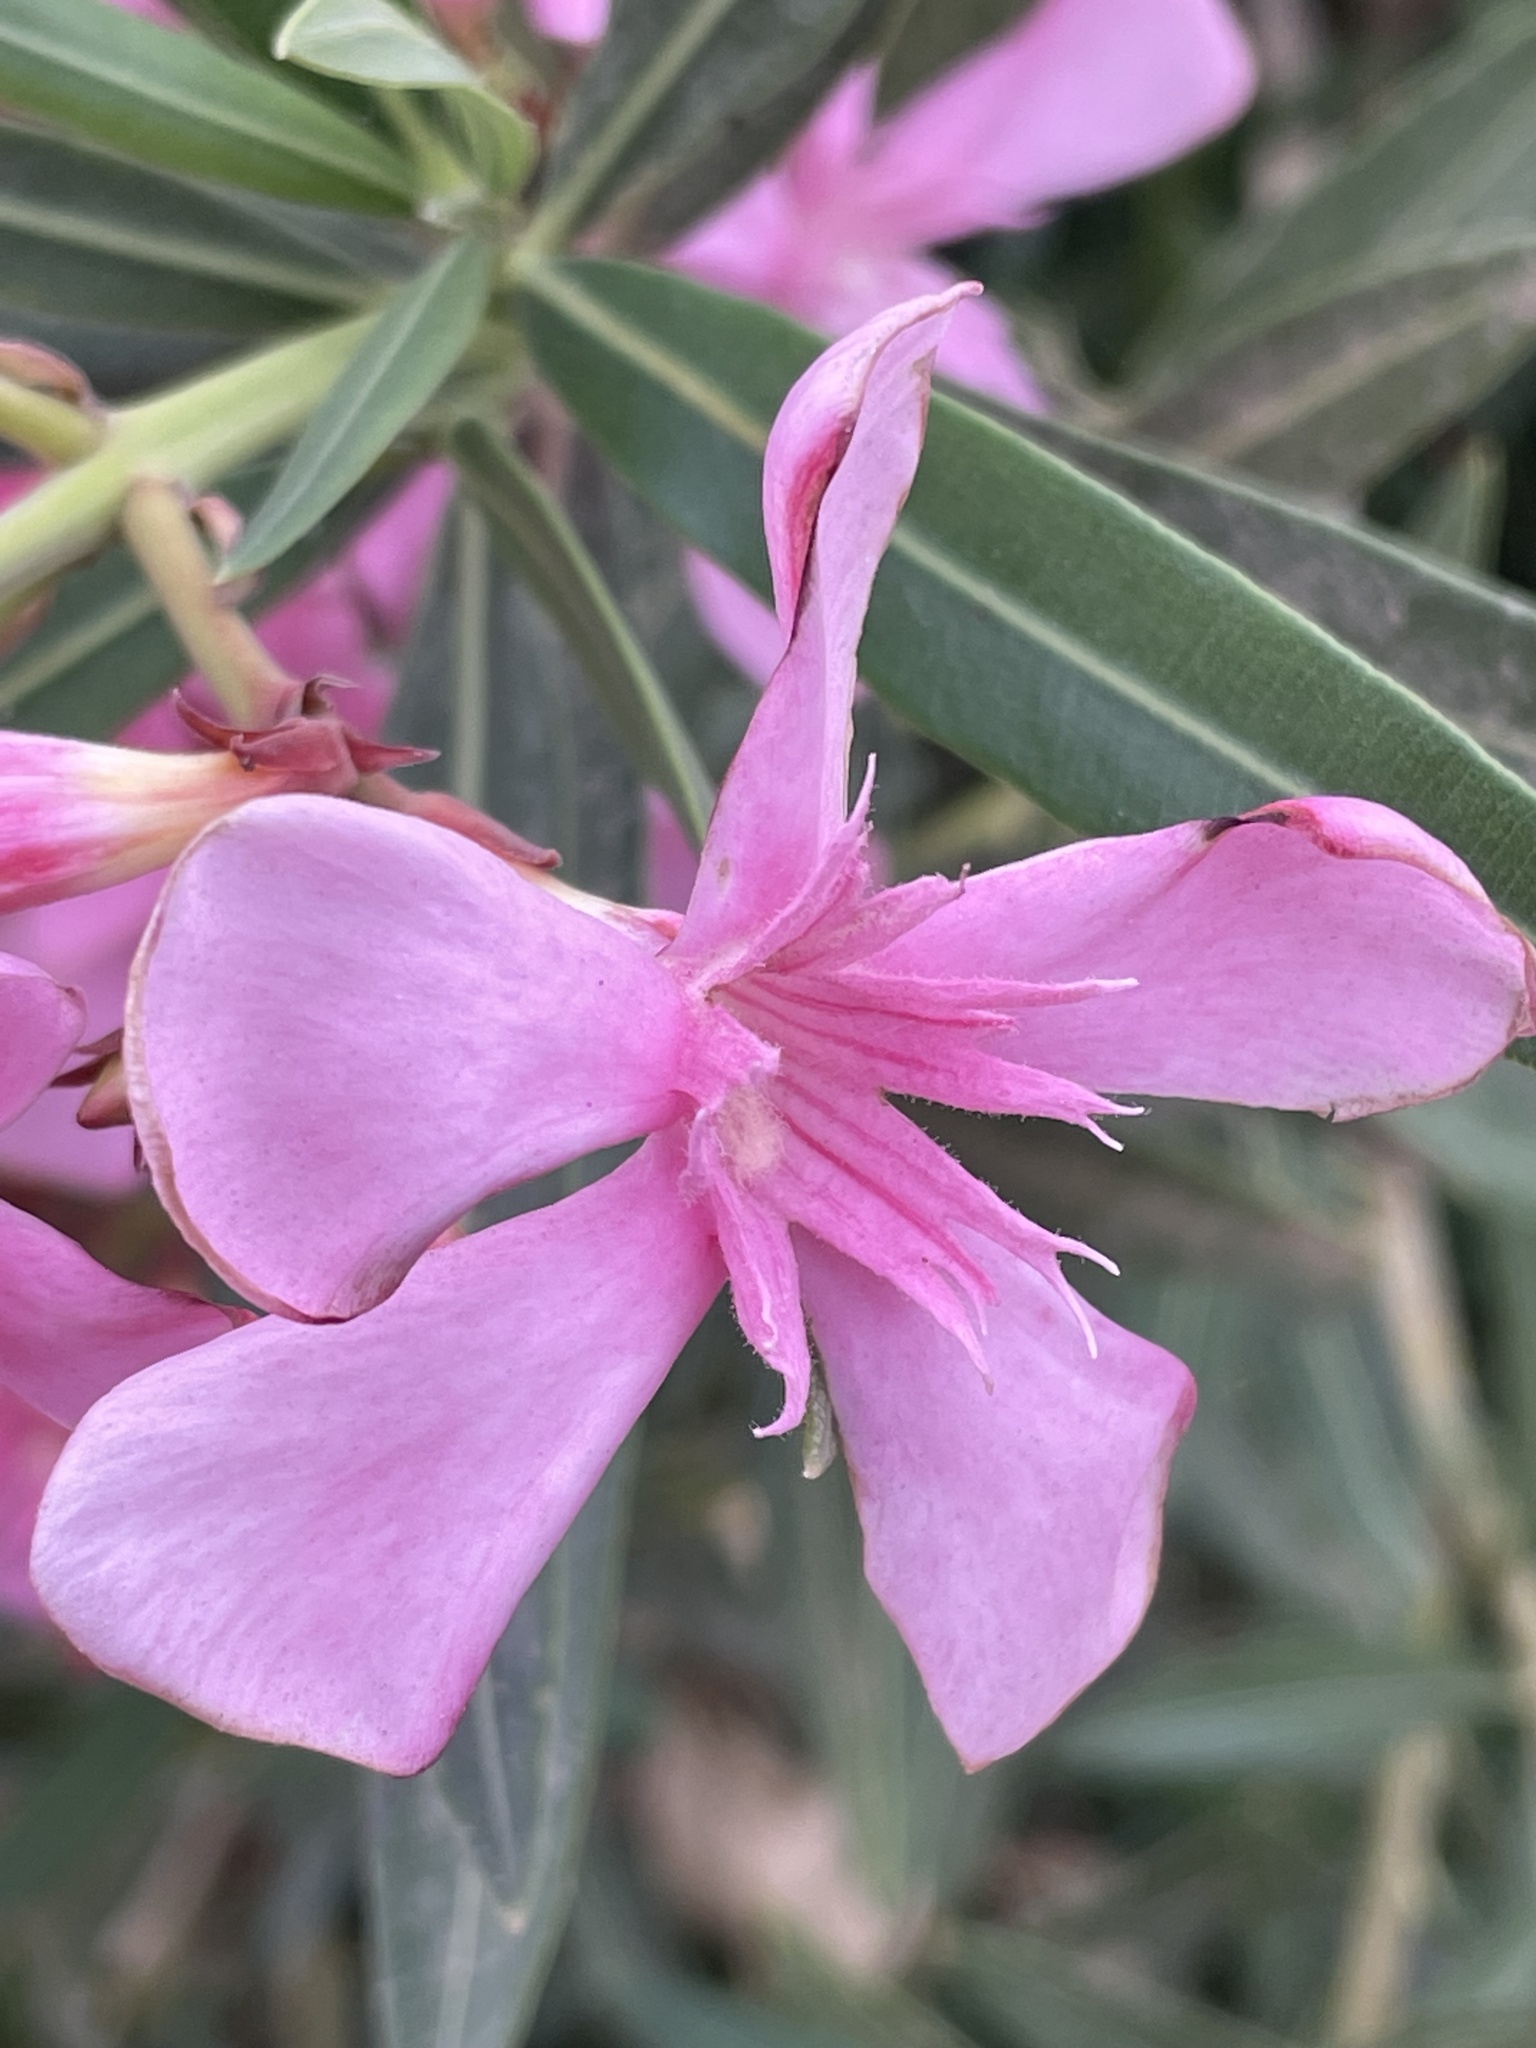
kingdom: Plantae
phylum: Tracheophyta
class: Magnoliopsida
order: Gentianales
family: Apocynaceae
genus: Nerium
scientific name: Nerium oleander
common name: Oleander
